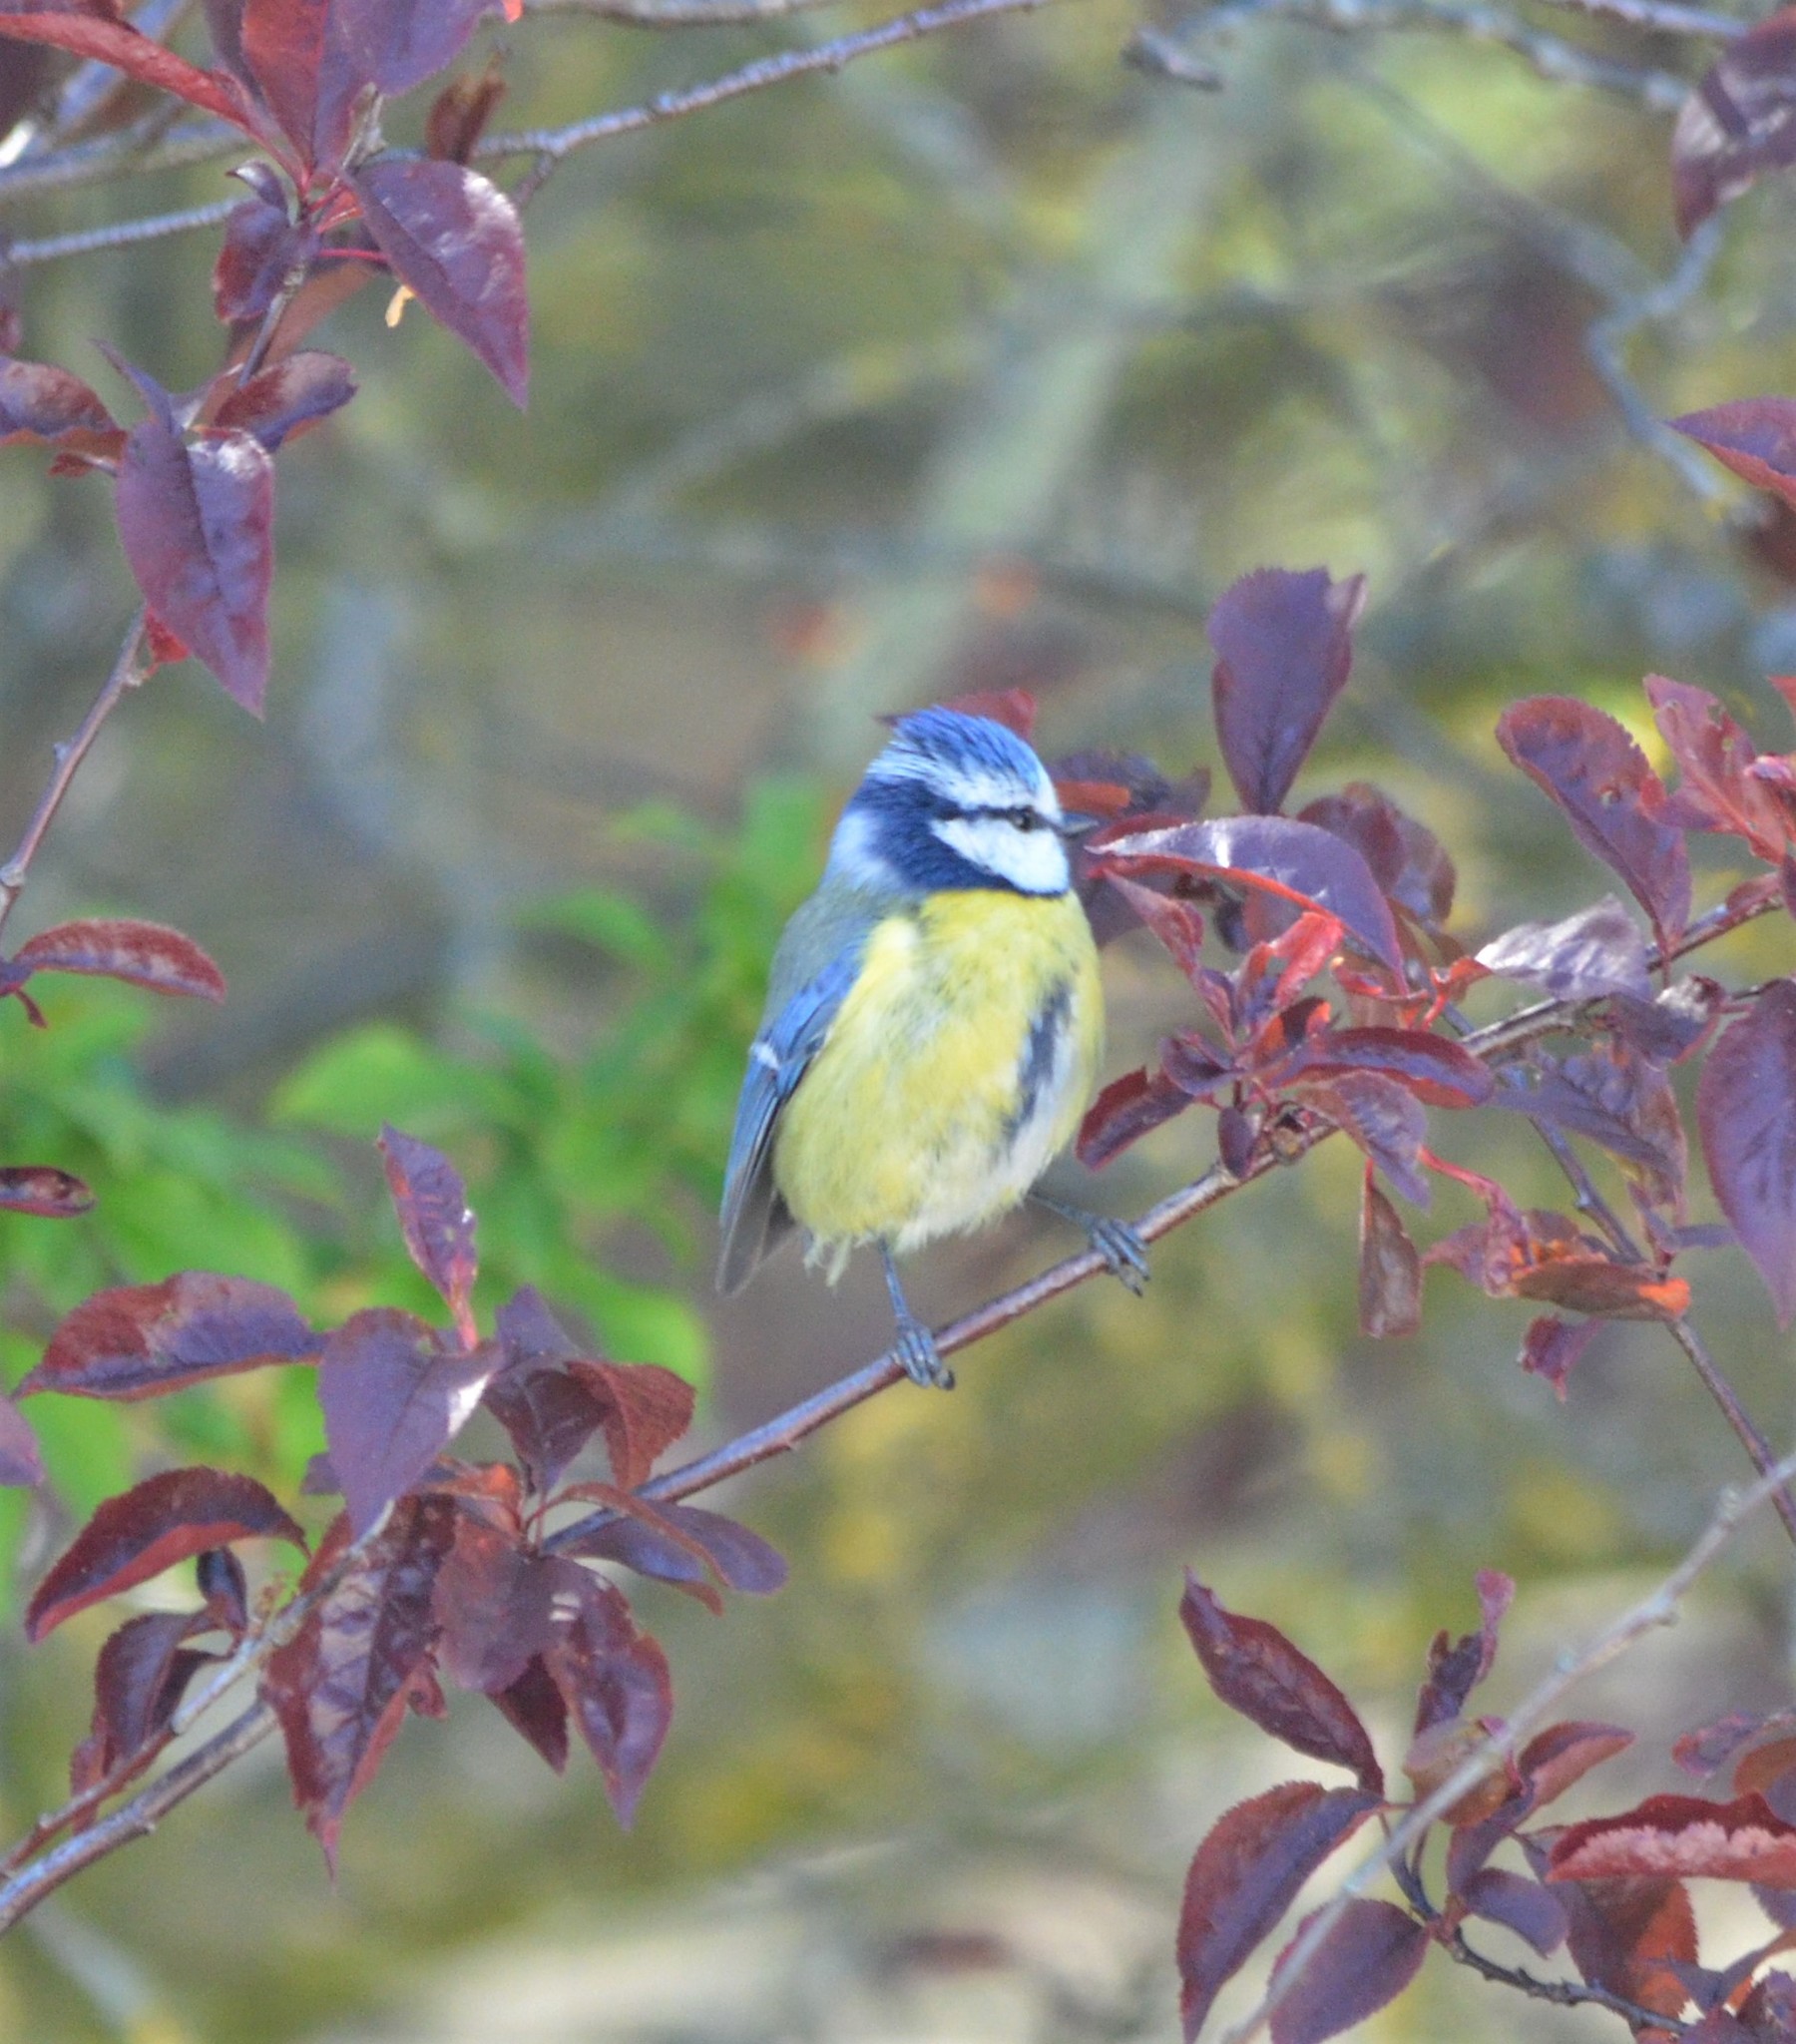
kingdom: Animalia
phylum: Chordata
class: Aves
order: Passeriformes
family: Paridae
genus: Cyanistes
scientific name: Cyanistes caeruleus
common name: Eurasian blue tit
